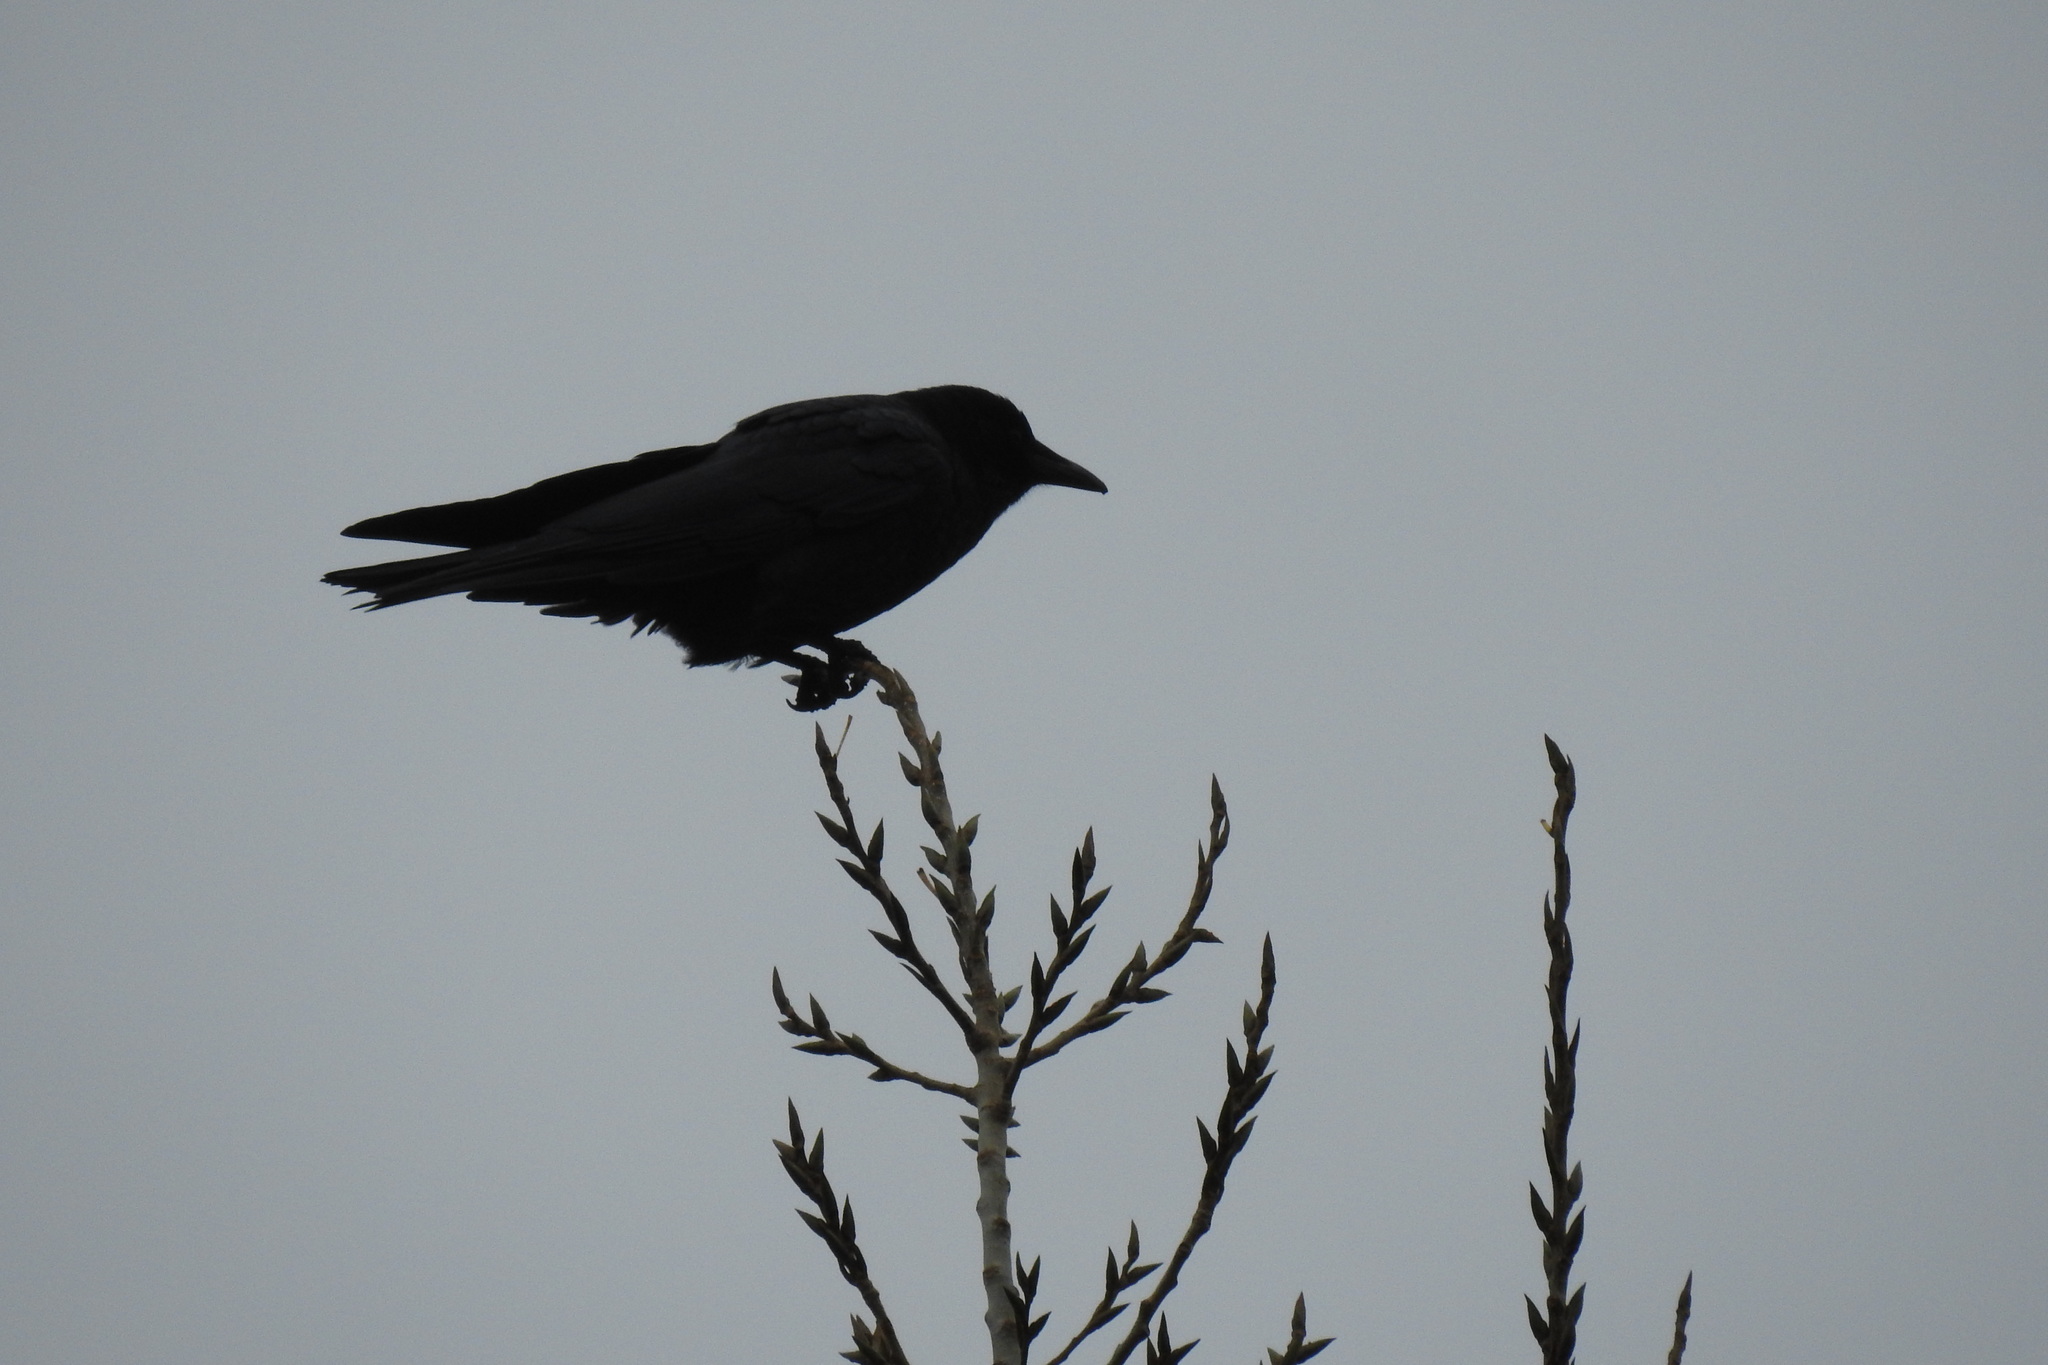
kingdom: Animalia
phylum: Chordata
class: Aves
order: Passeriformes
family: Corvidae
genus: Corvus
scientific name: Corvus brachyrhynchos
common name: American crow
